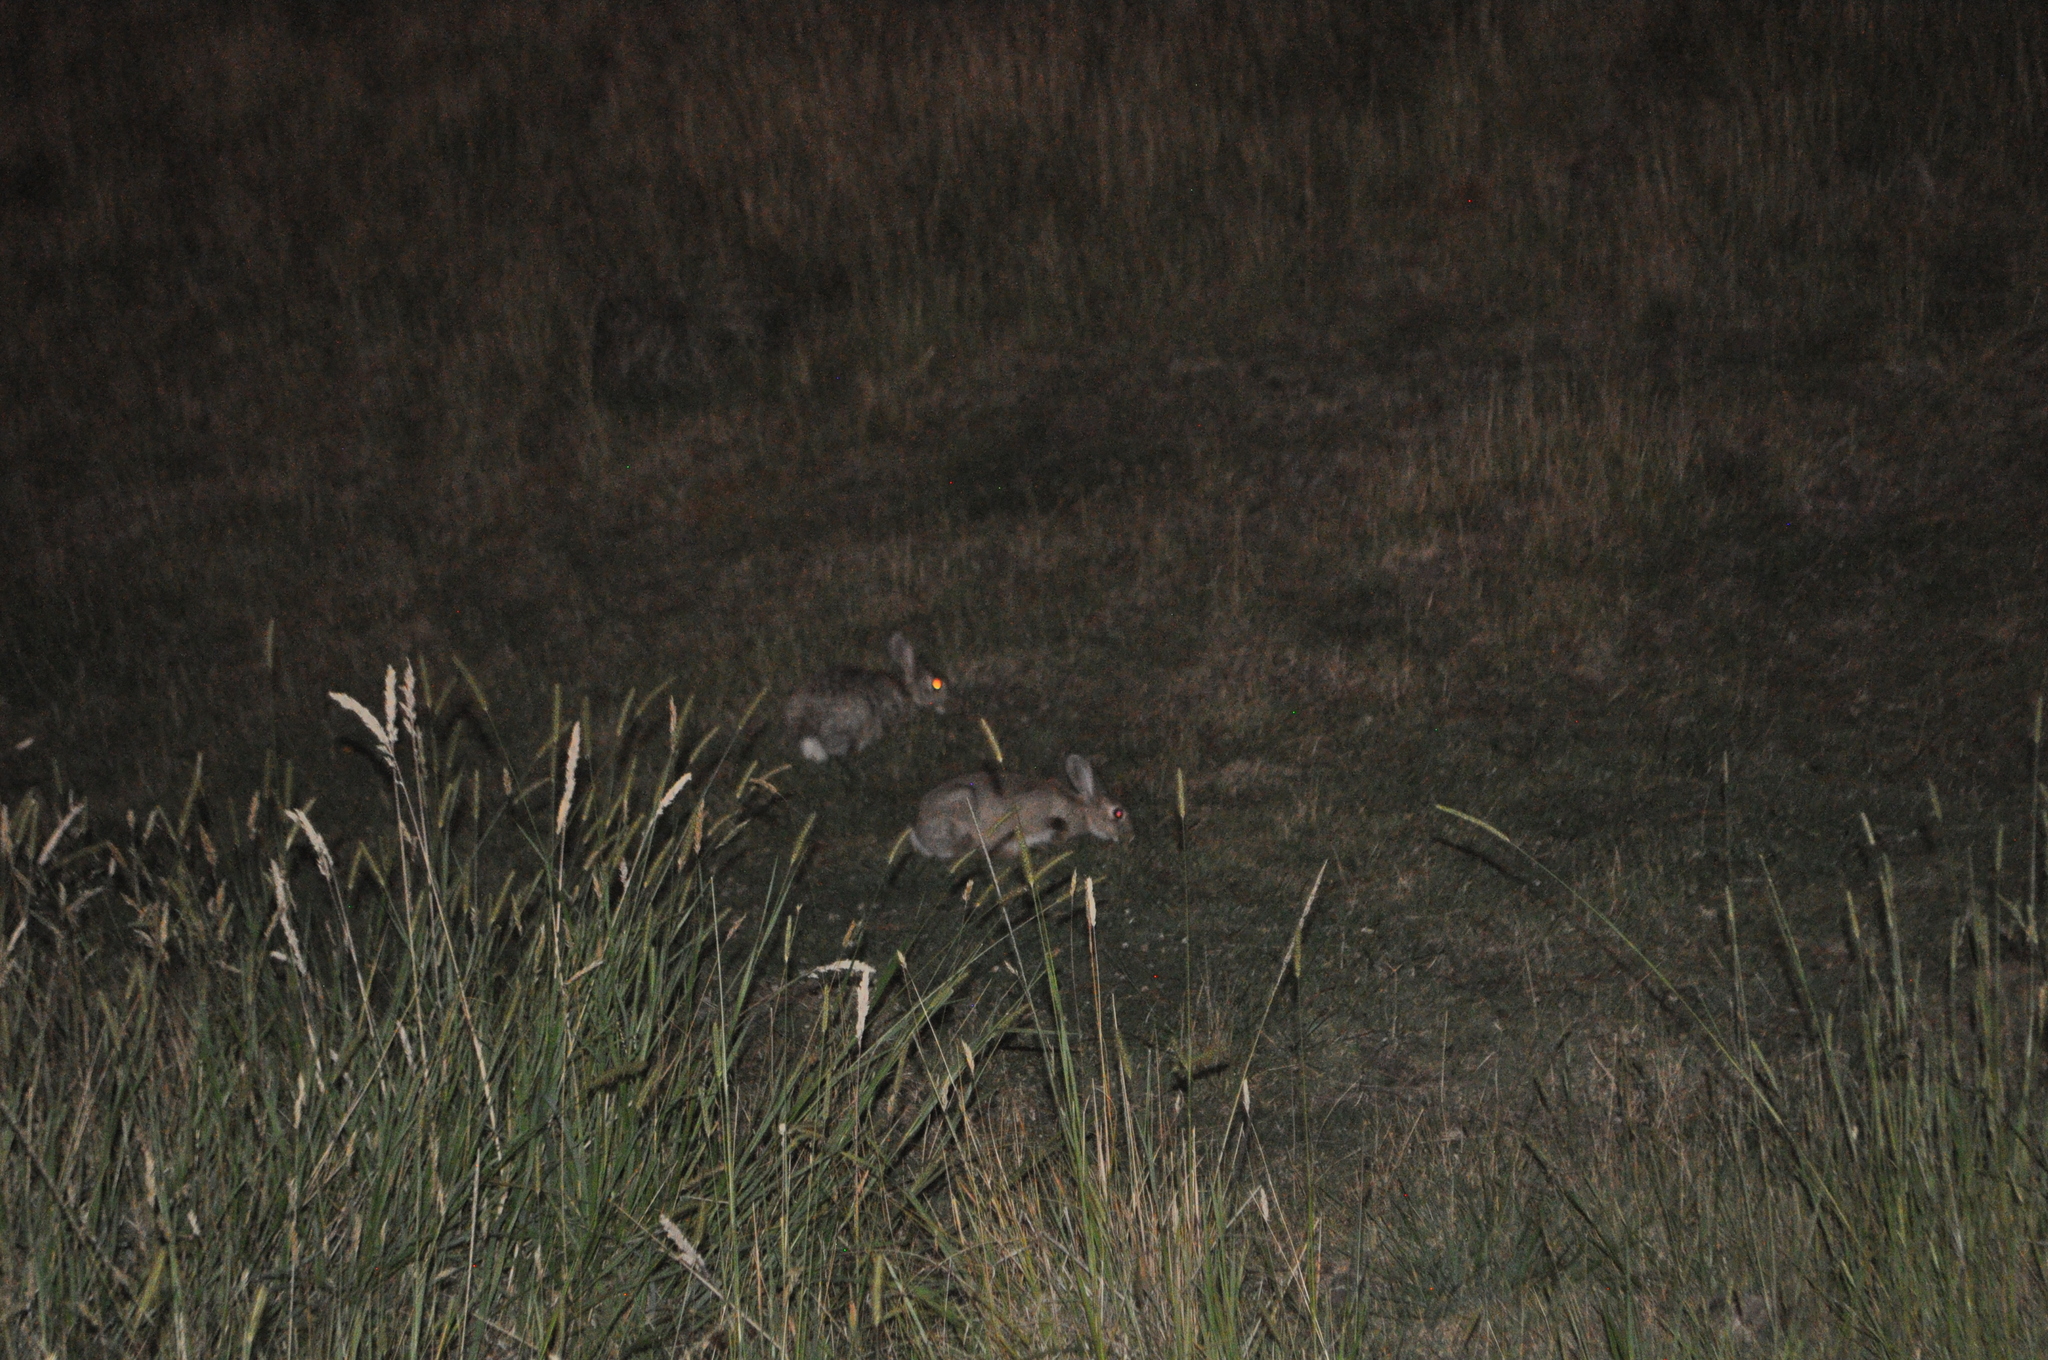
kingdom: Animalia
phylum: Chordata
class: Mammalia
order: Lagomorpha
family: Leporidae
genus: Oryctolagus
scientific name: Oryctolagus cuniculus
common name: European rabbit
